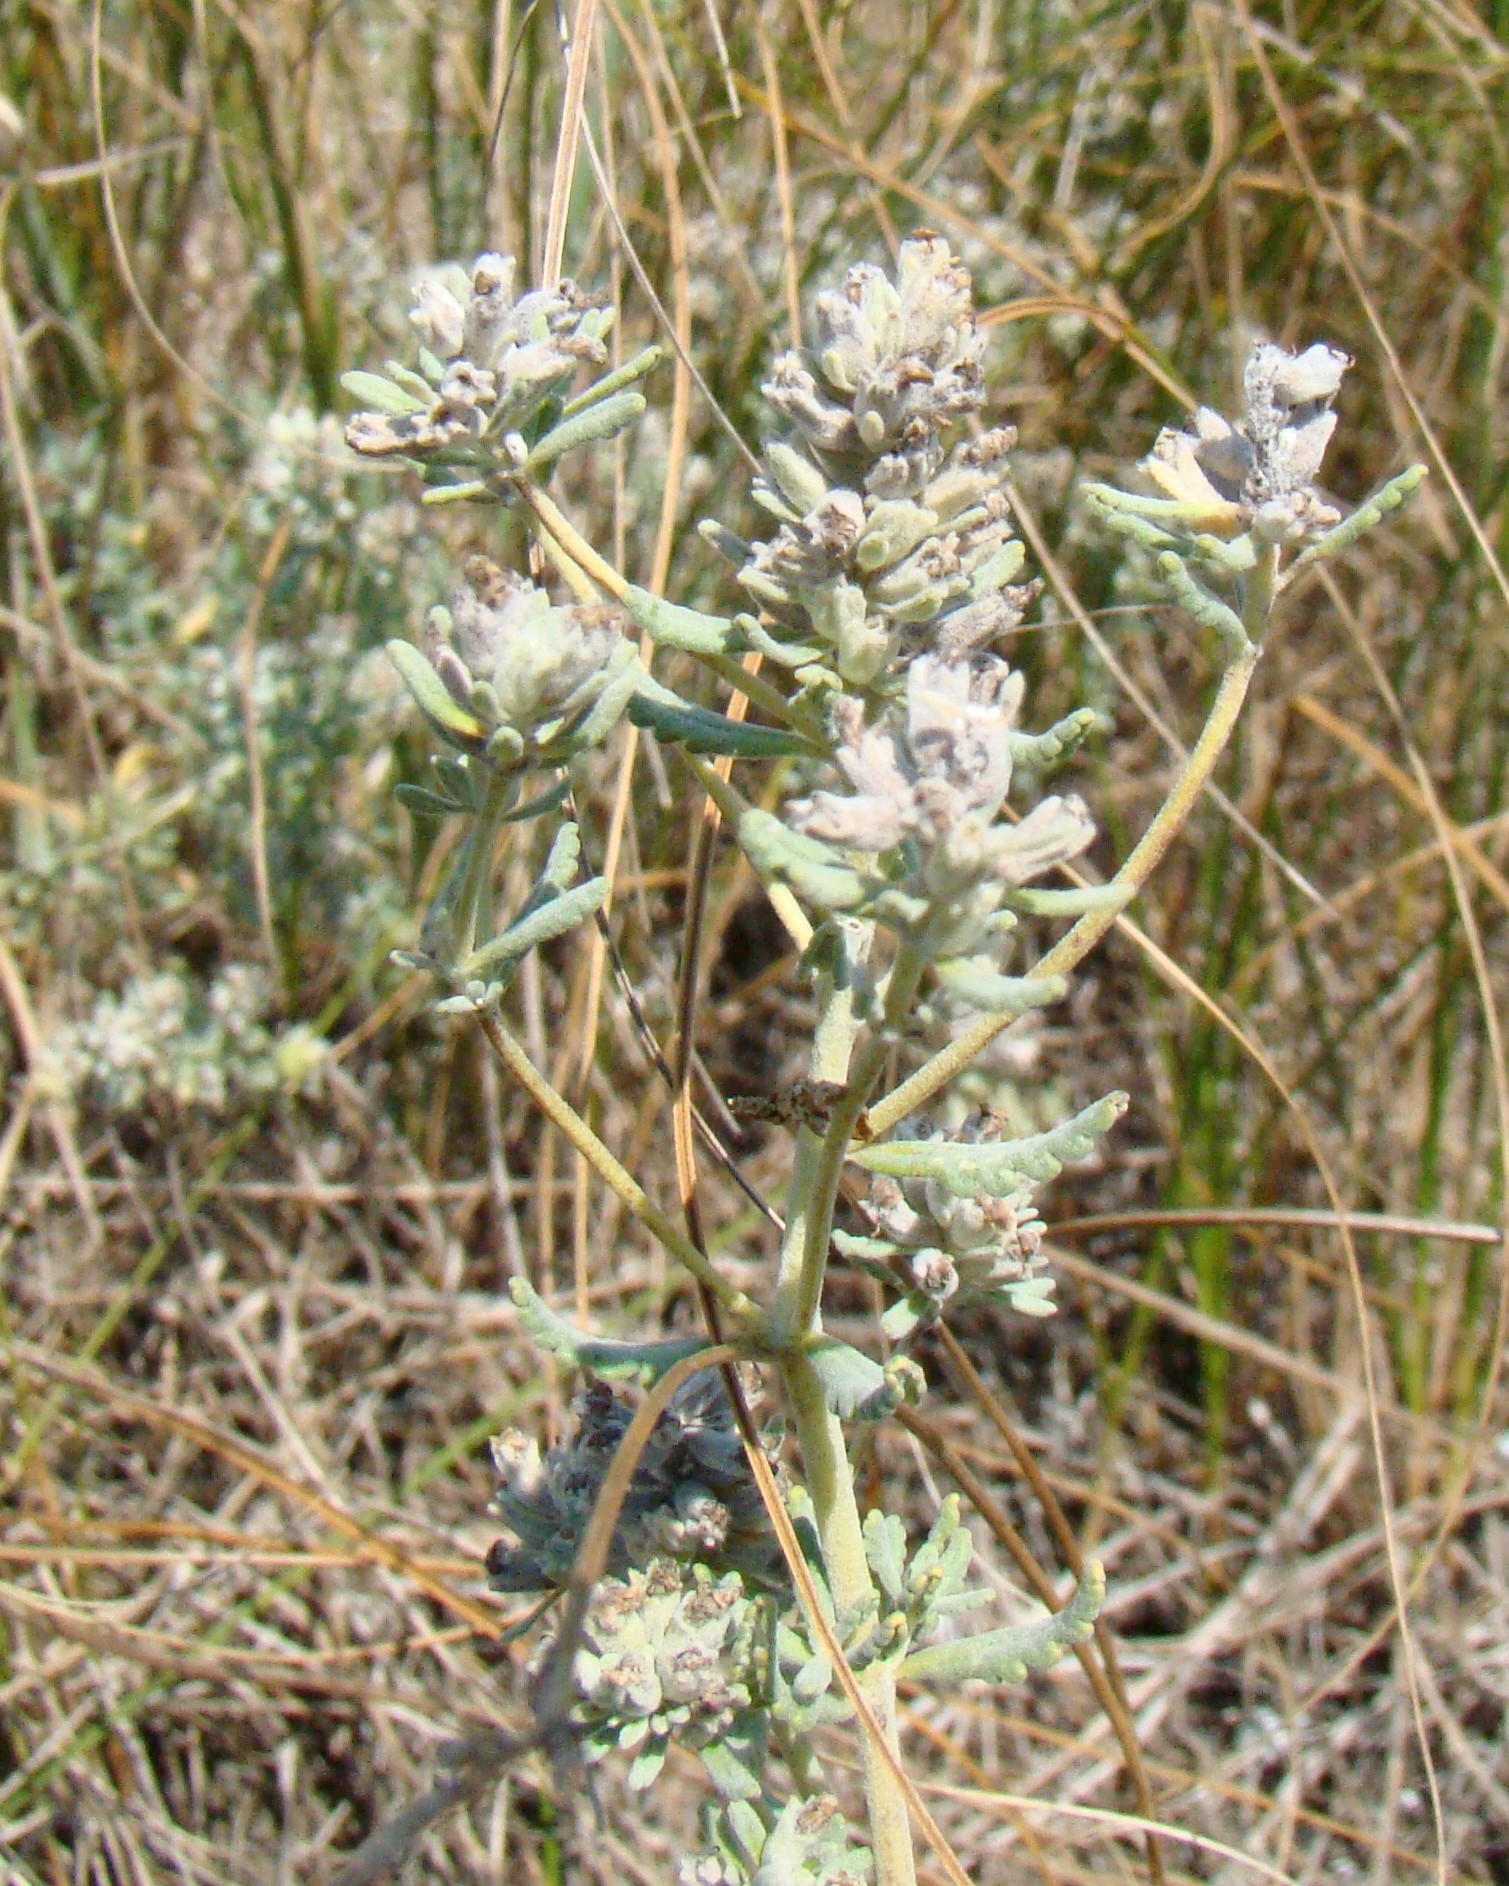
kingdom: Plantae
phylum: Tracheophyta
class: Magnoliopsida
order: Lamiales
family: Lamiaceae
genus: Teucrium
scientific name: Teucrium polium
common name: Poley
